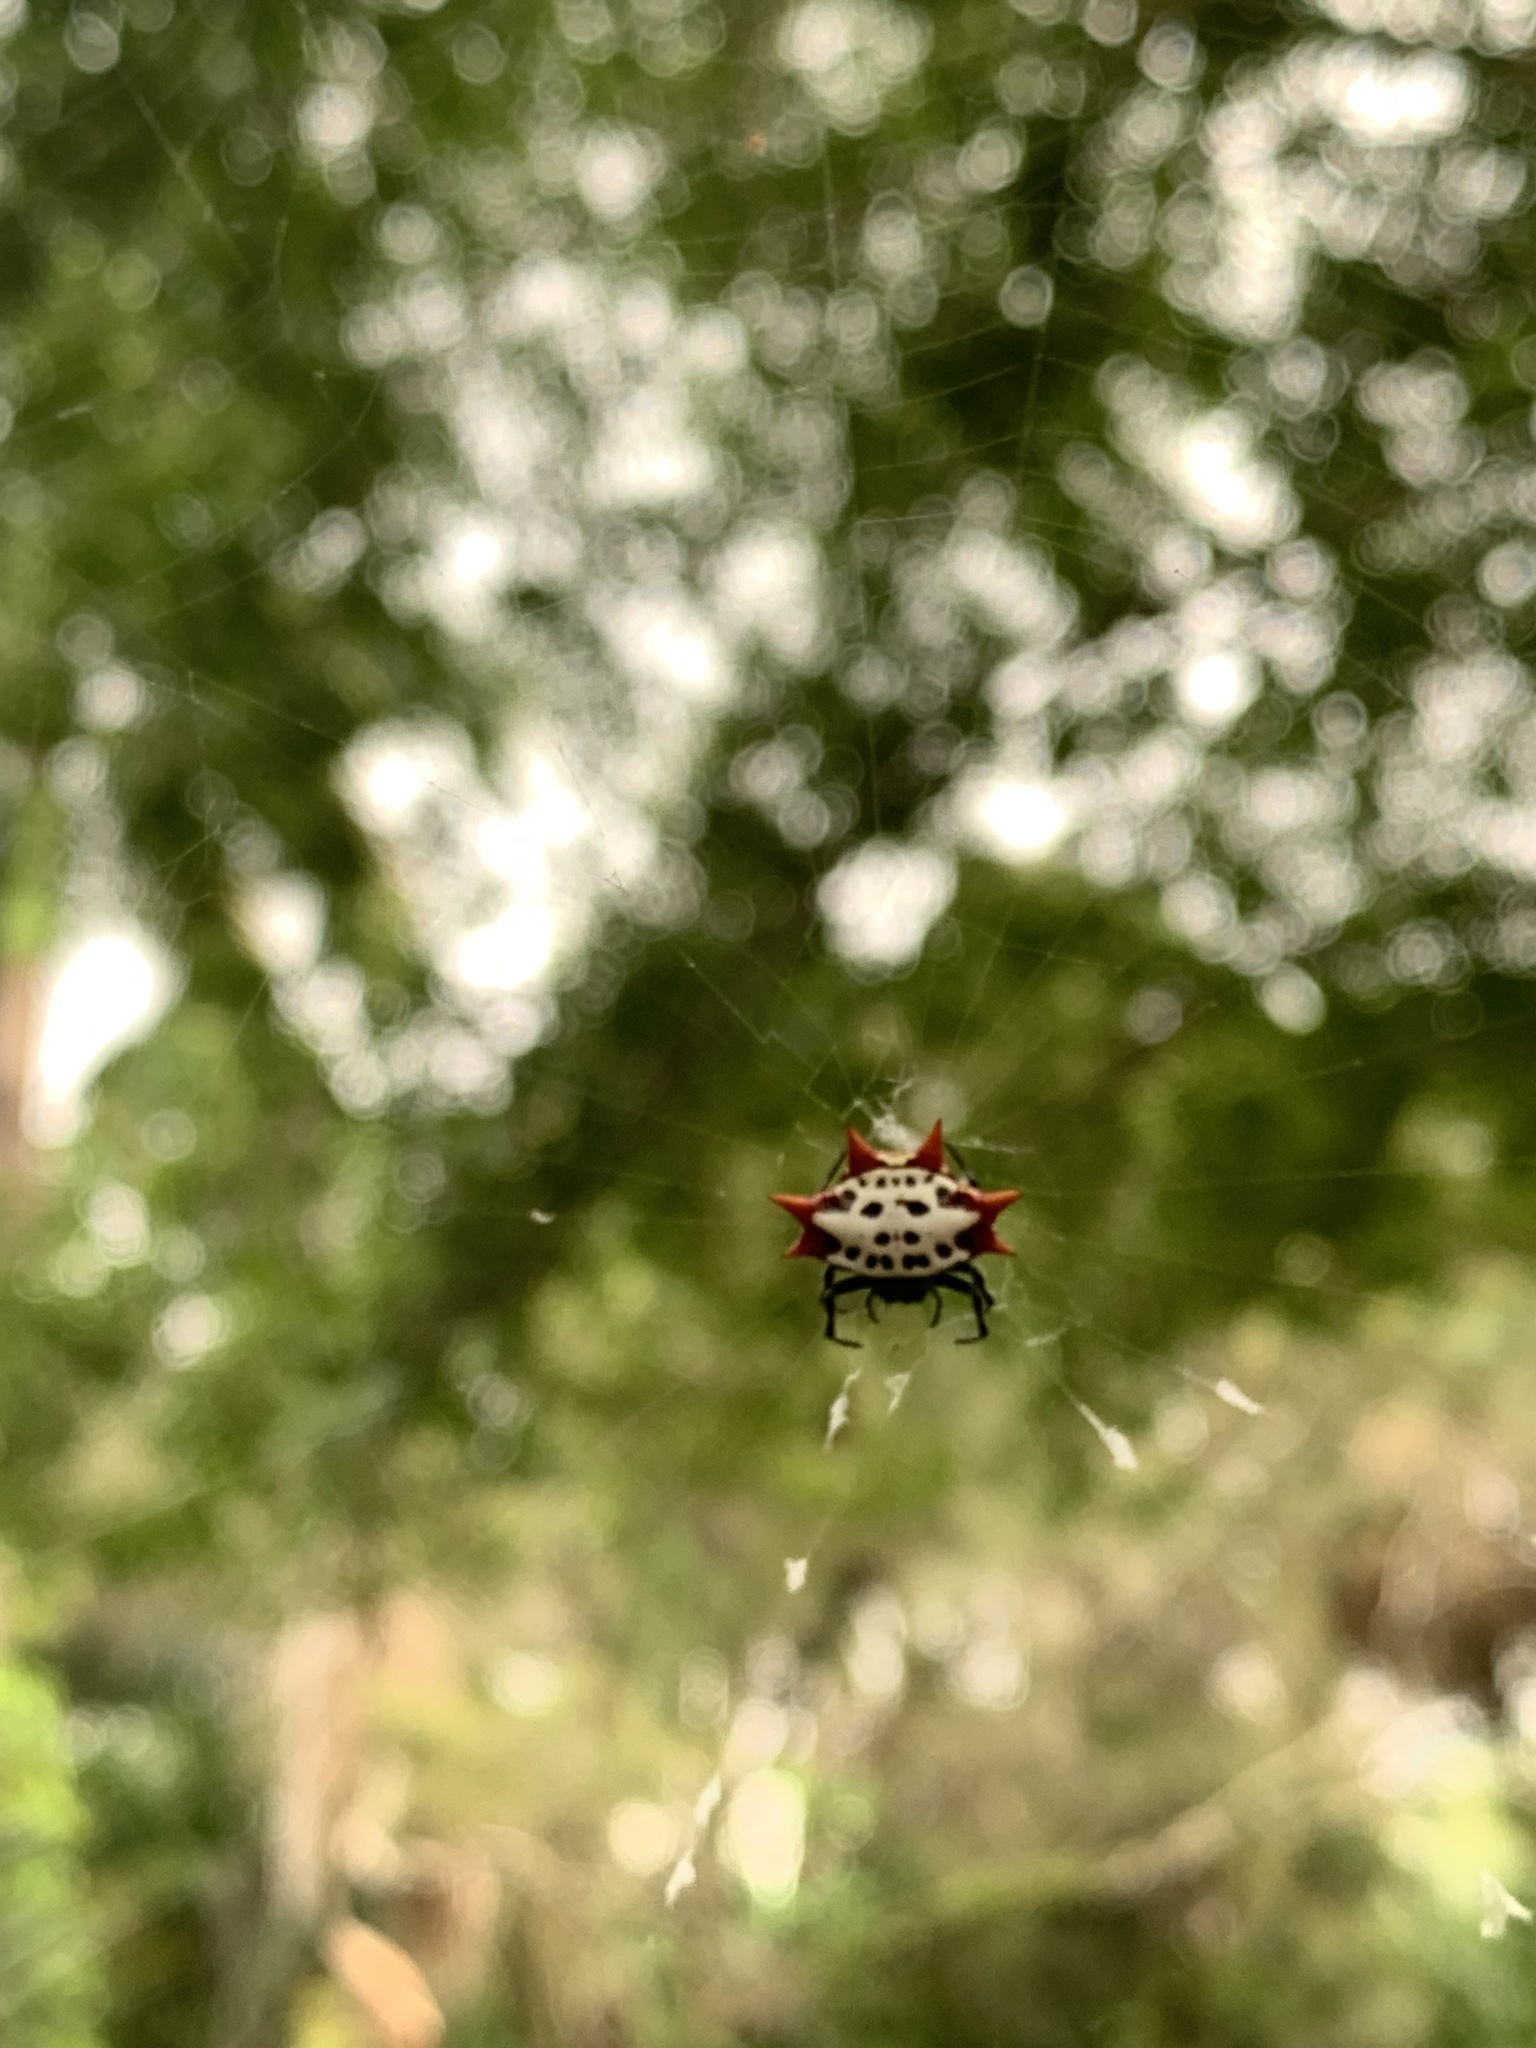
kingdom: Animalia
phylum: Arthropoda
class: Arachnida
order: Araneae
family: Araneidae
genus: Gasteracantha
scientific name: Gasteracantha cancriformis
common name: Orb weavers
